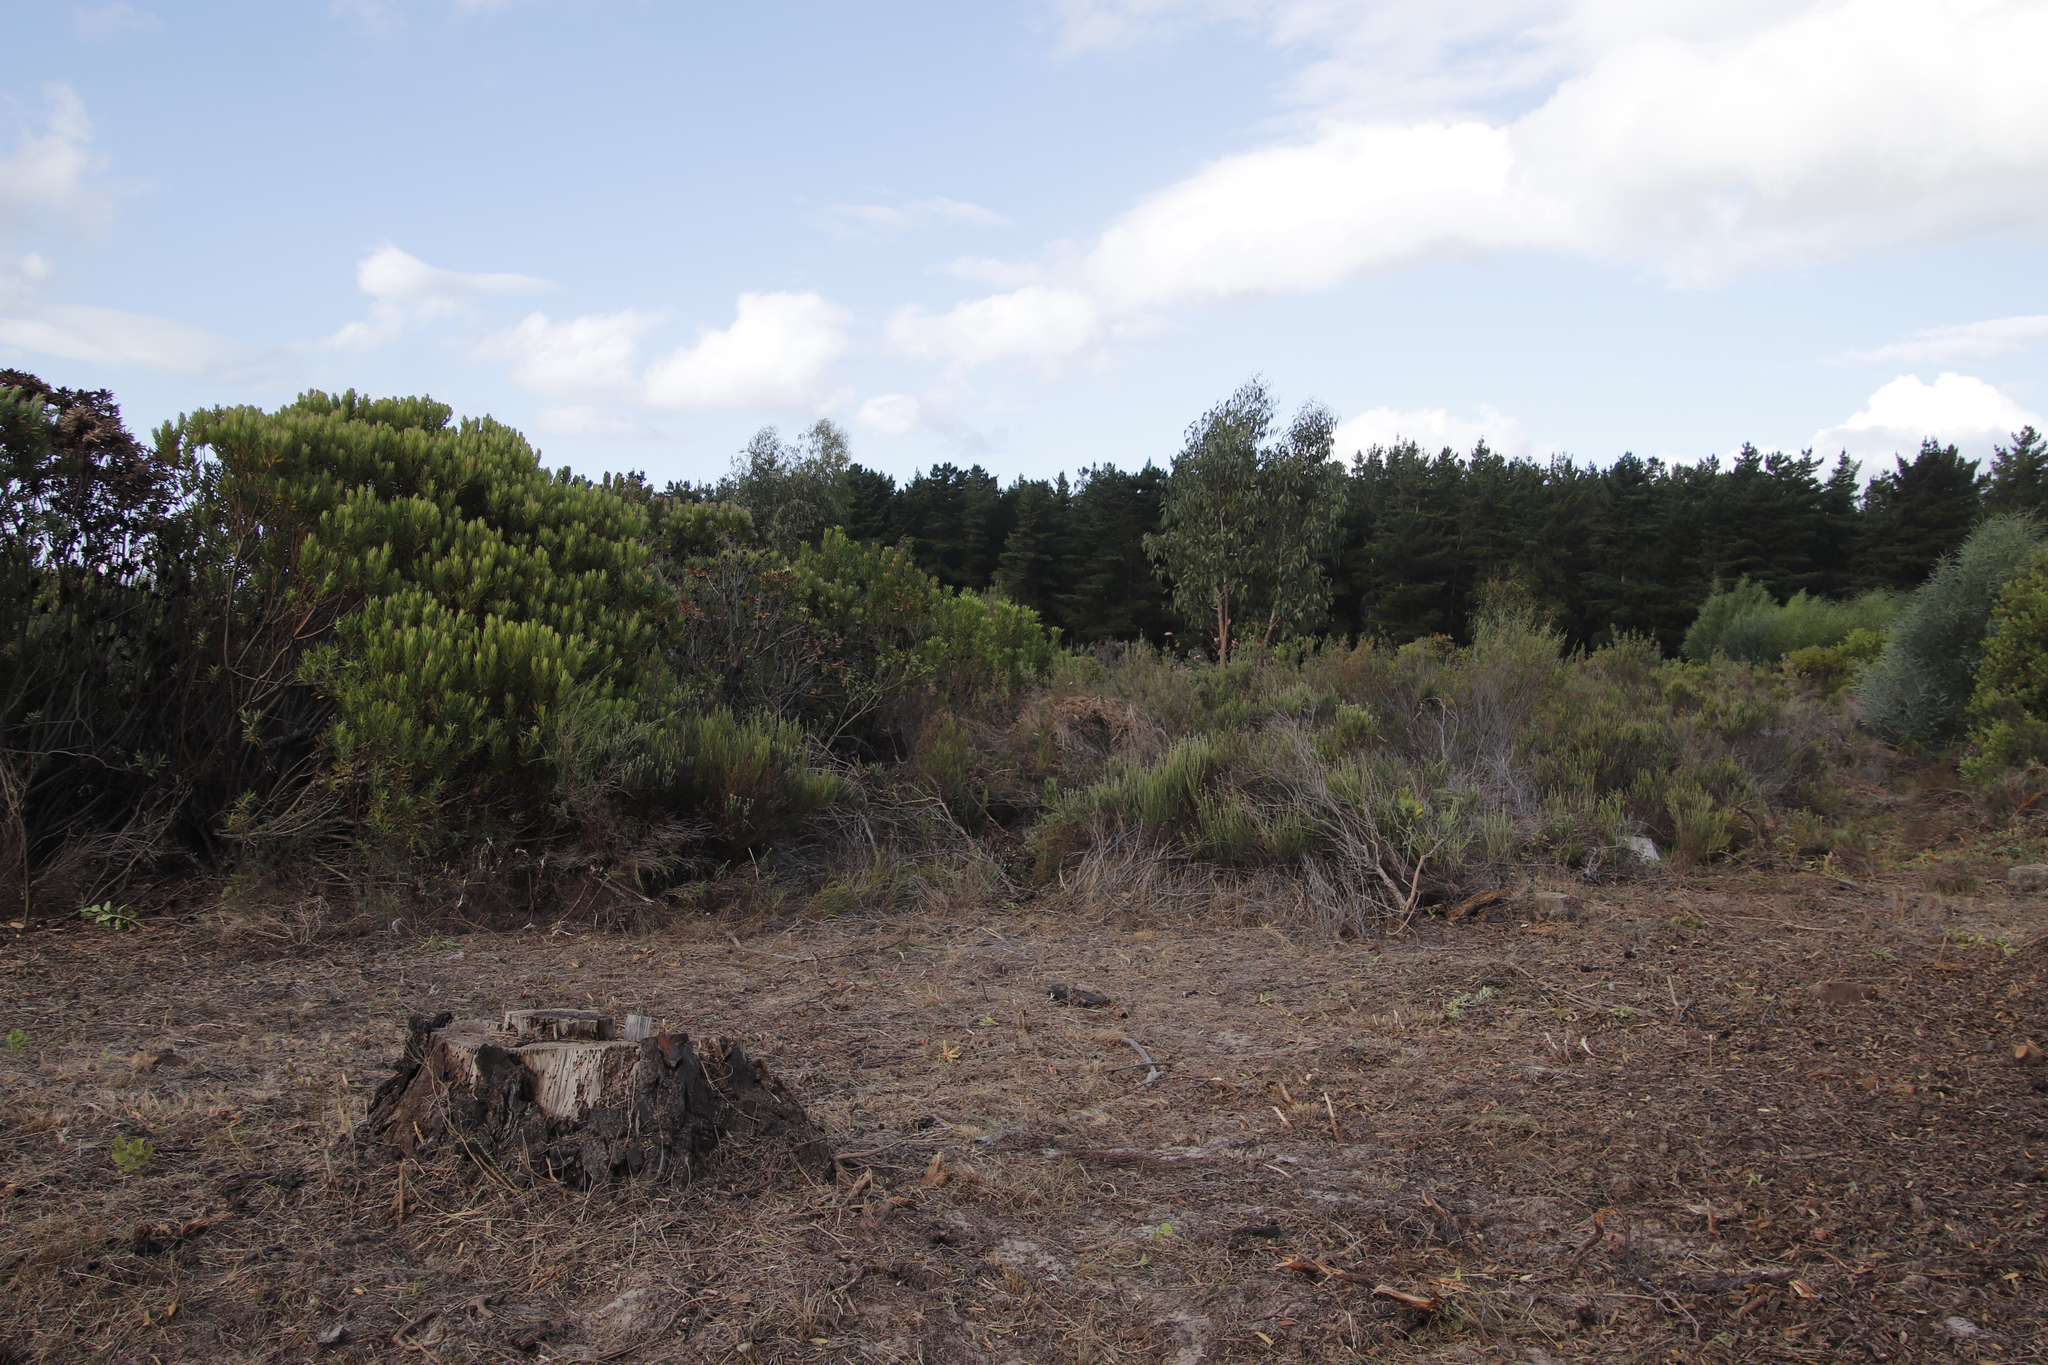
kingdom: Plantae
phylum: Tracheophyta
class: Magnoliopsida
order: Proteales
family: Proteaceae
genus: Leucadendron
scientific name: Leucadendron laureolum
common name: Golden sunshinebush
